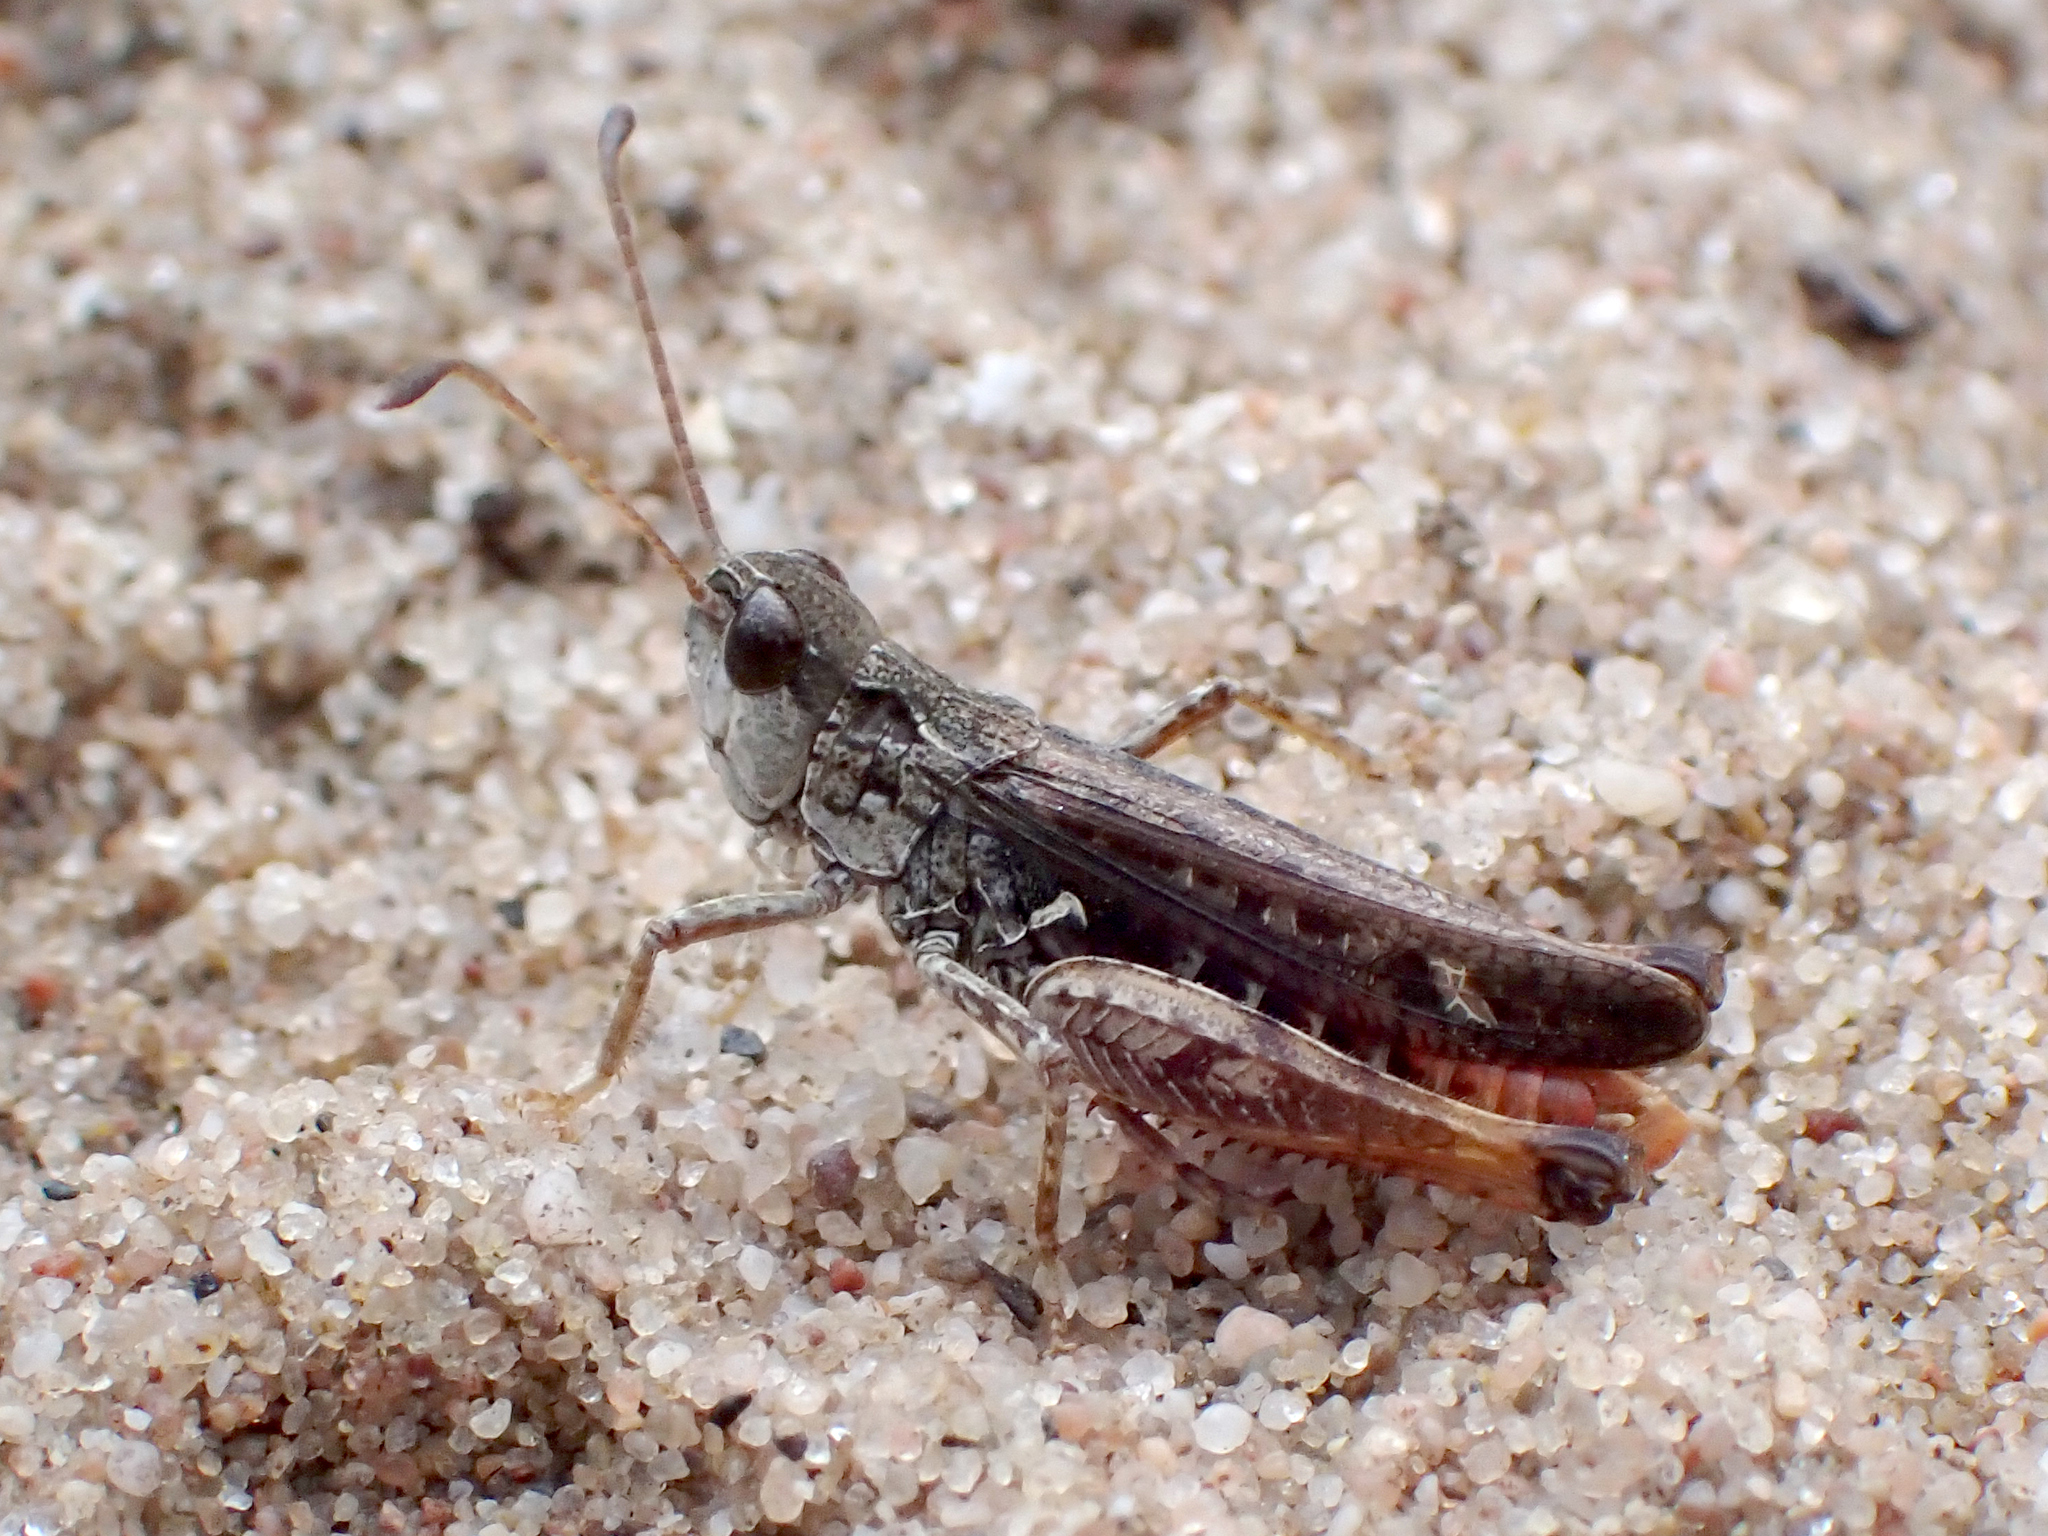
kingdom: Animalia
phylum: Arthropoda
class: Insecta
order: Orthoptera
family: Acrididae
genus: Myrmeleotettix
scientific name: Myrmeleotettix maculatus
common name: Mottled grasshopper
